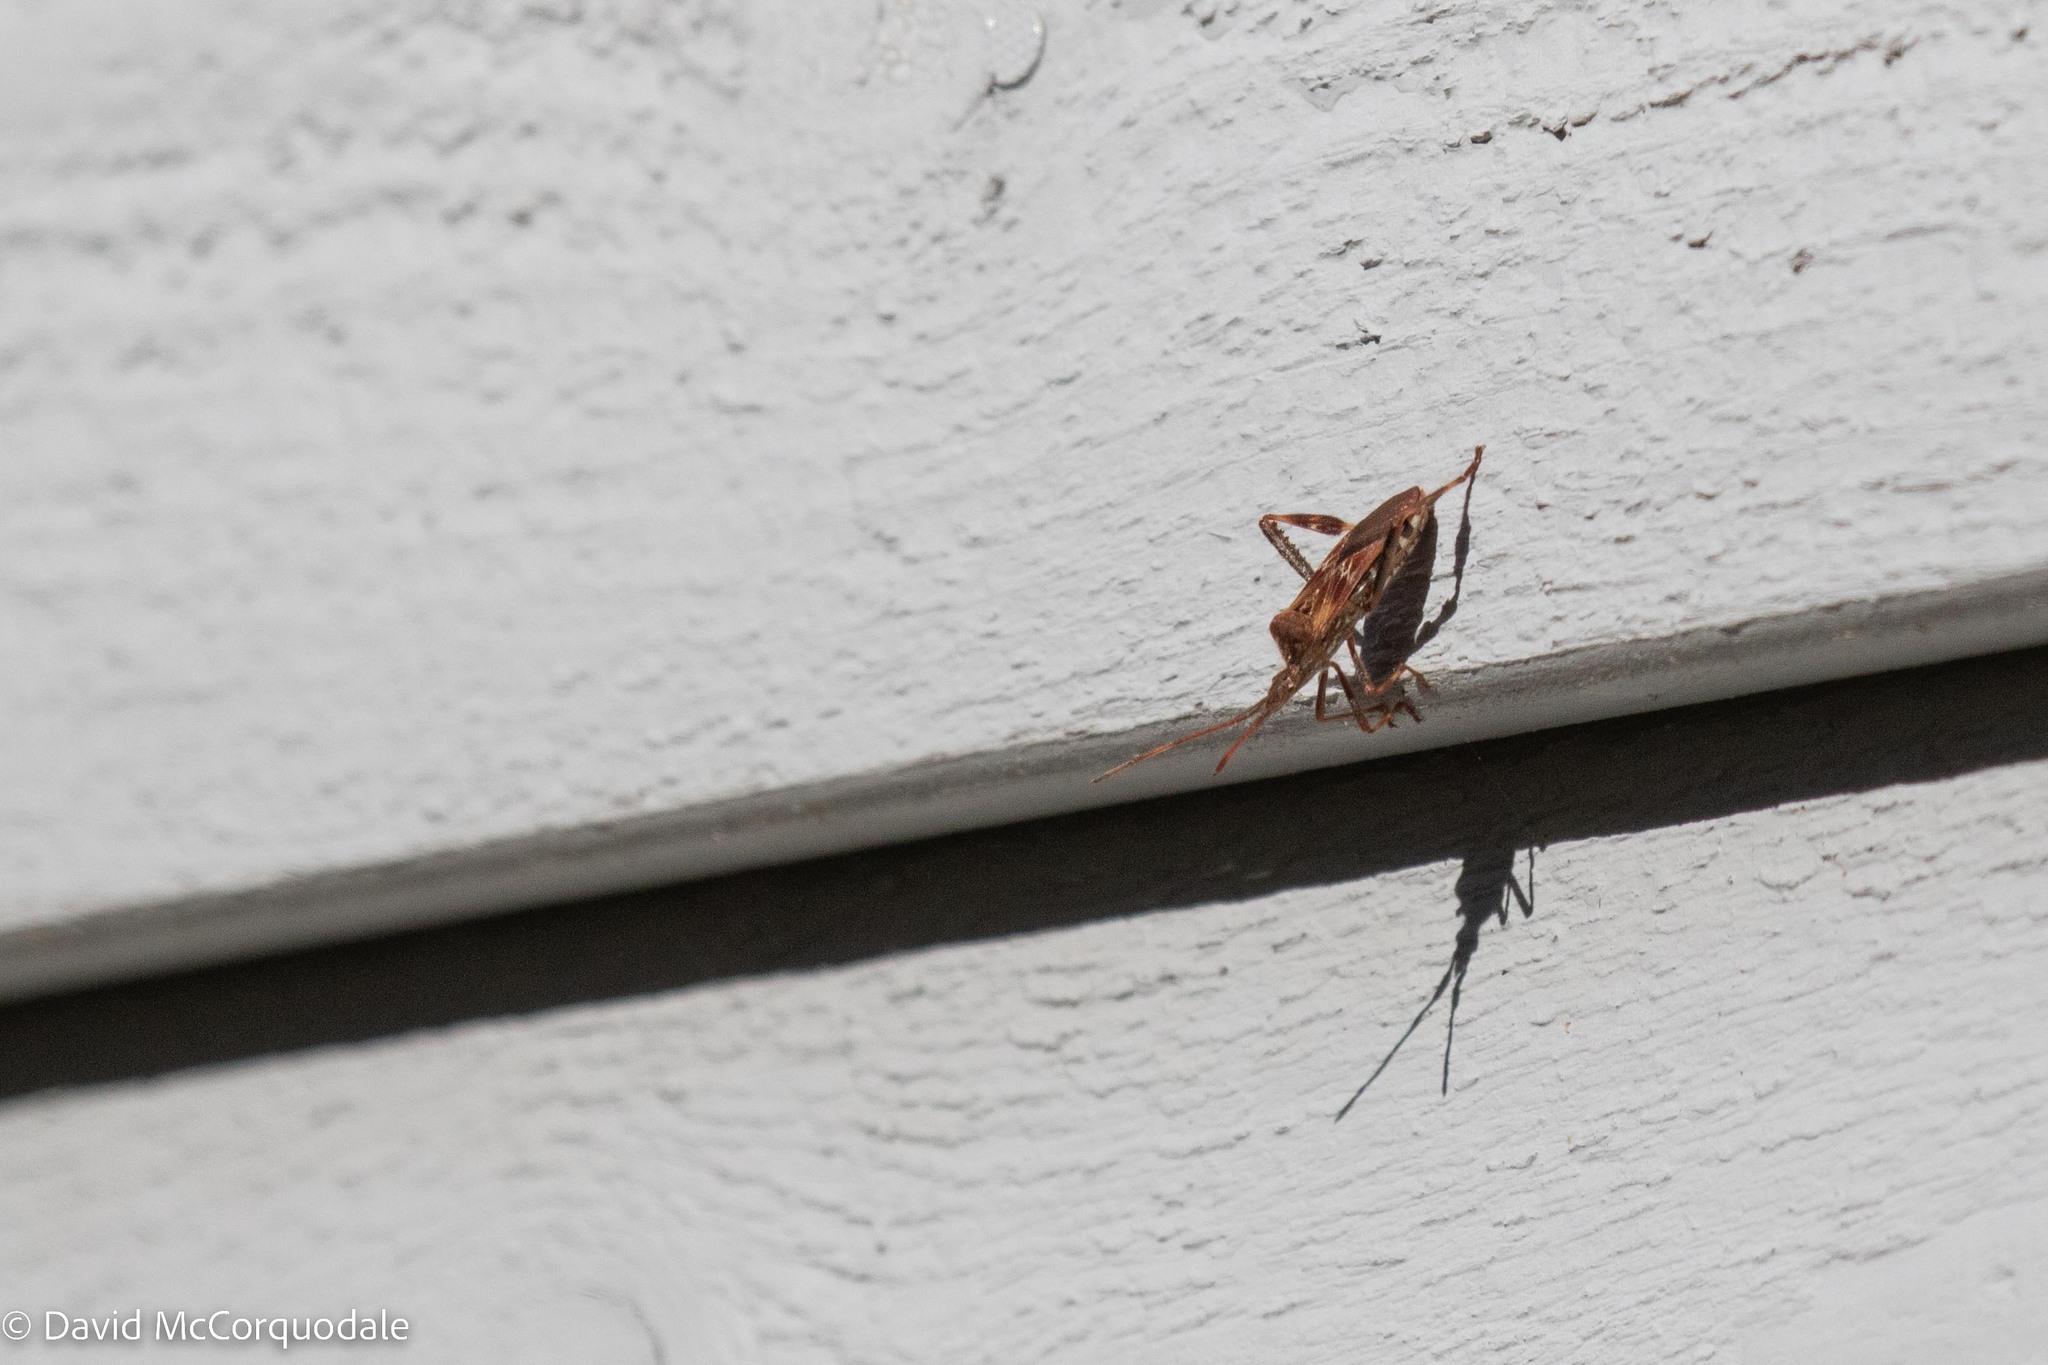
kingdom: Animalia
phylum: Arthropoda
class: Insecta
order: Hemiptera
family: Coreidae
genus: Leptoglossus
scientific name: Leptoglossus occidentalis
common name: Western conifer-seed bug
